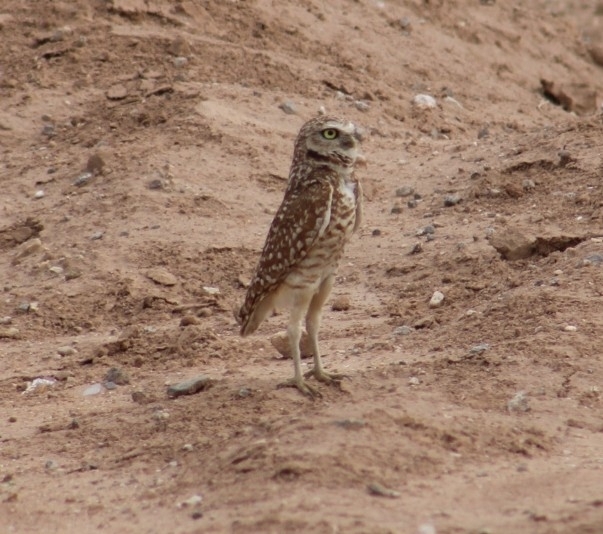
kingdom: Animalia
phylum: Chordata
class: Aves
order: Strigiformes
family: Strigidae
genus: Athene
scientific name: Athene cunicularia
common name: Burrowing owl
